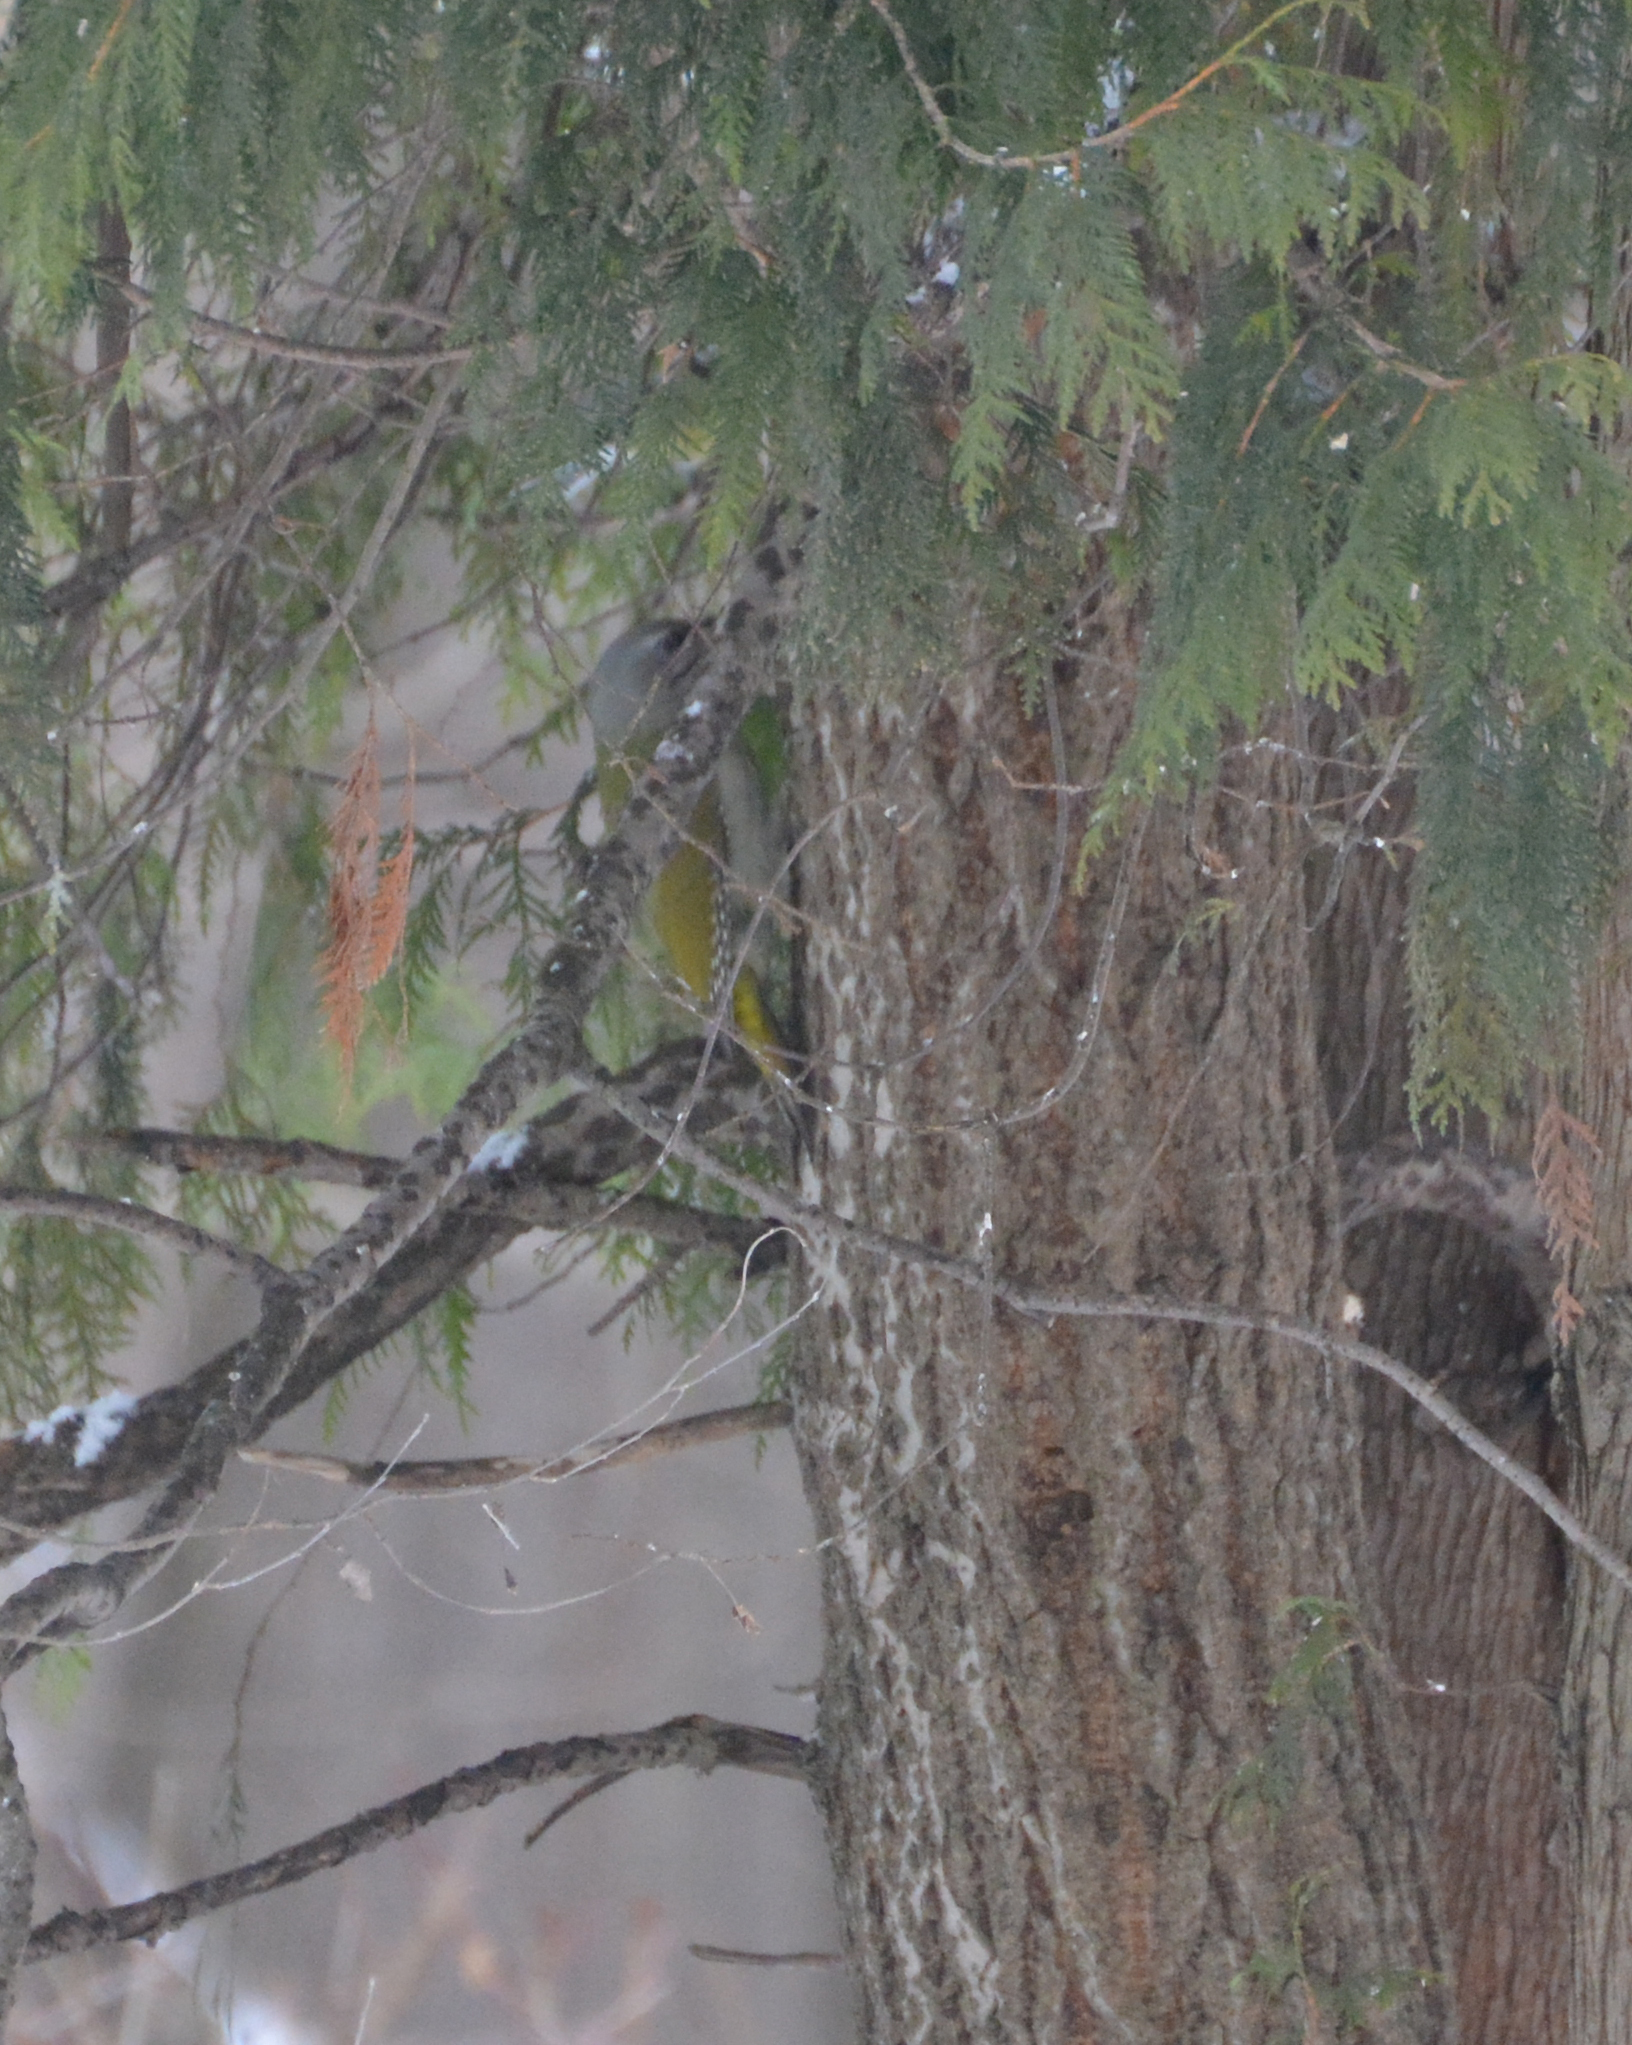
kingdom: Animalia
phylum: Chordata
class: Aves
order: Piciformes
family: Picidae
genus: Picus
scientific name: Picus canus
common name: Grey-headed woodpecker
